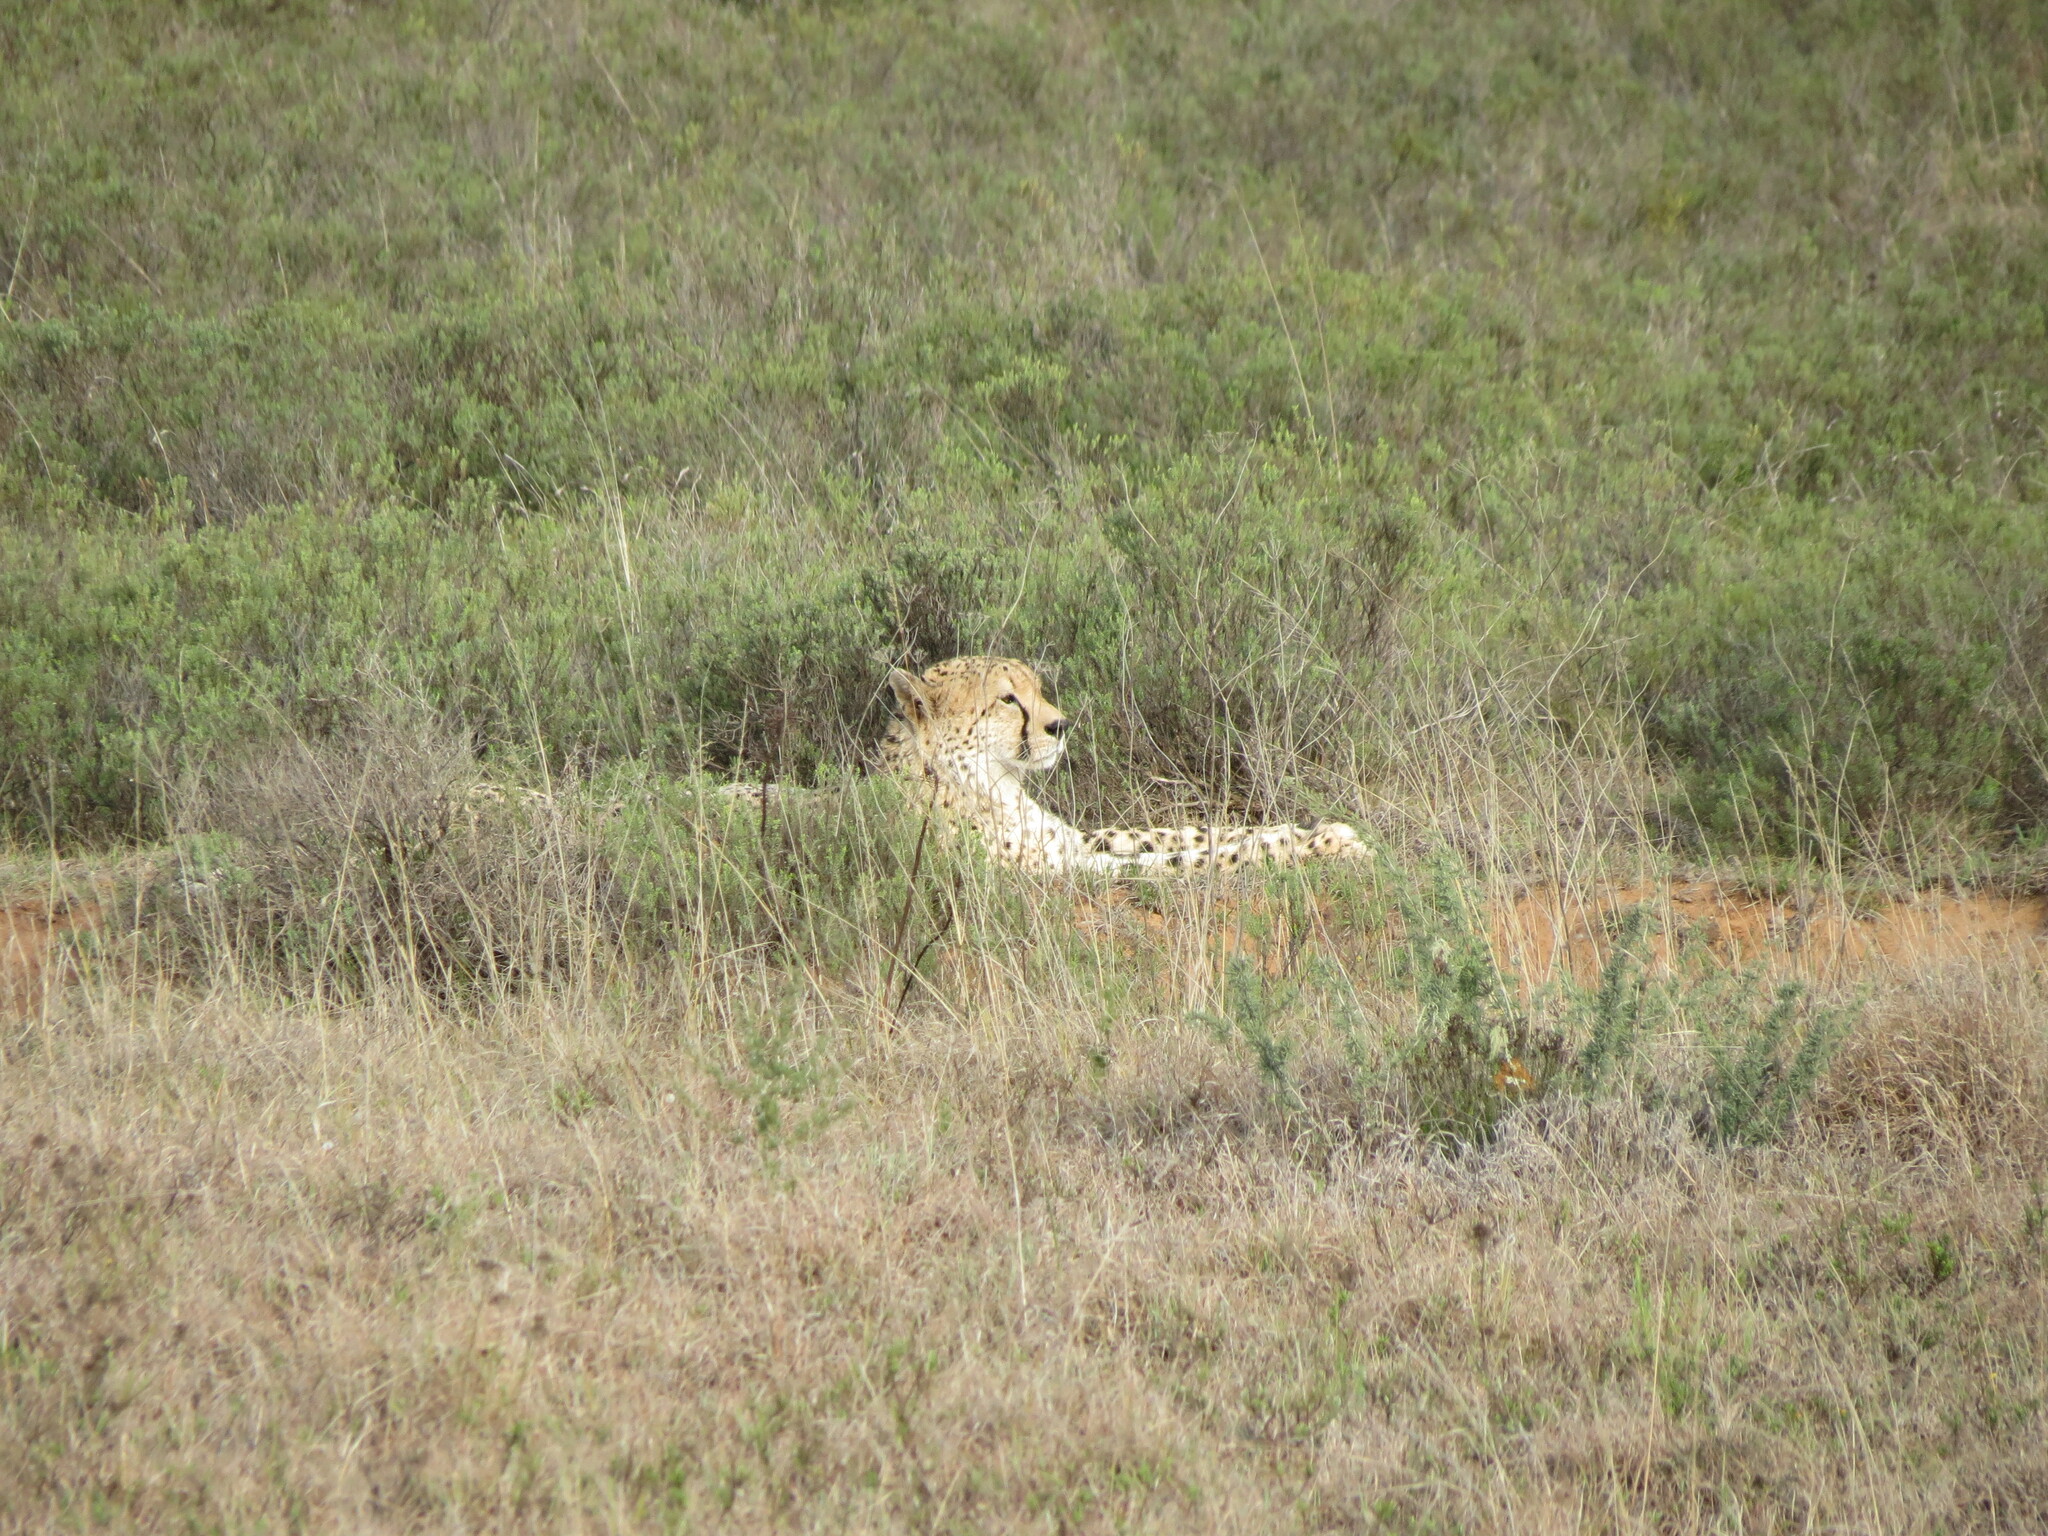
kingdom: Animalia
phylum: Chordata
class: Mammalia
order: Carnivora
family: Felidae
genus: Acinonyx
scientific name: Acinonyx jubatus
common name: Cheetah
